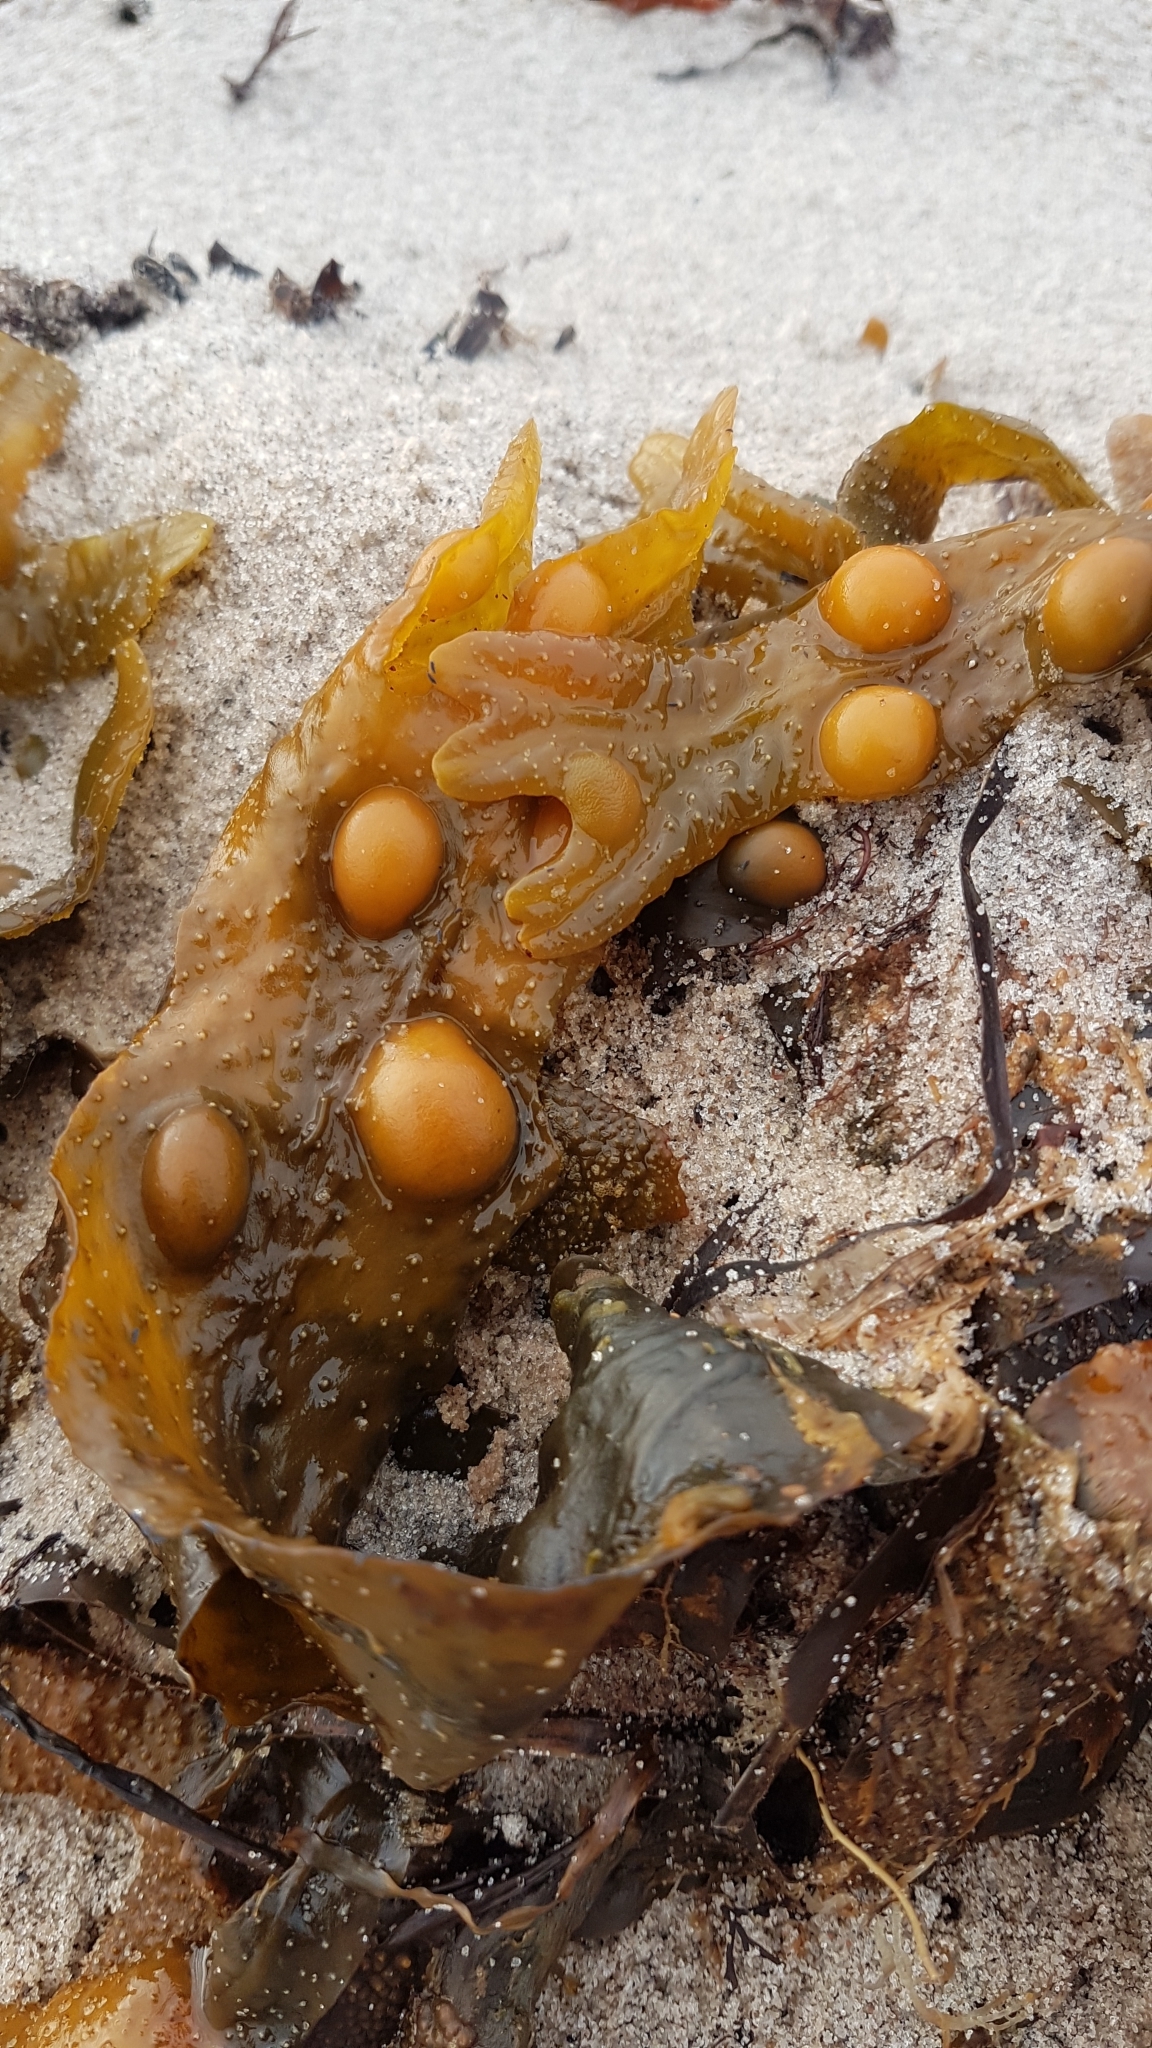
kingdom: Chromista
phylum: Ochrophyta
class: Phaeophyceae
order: Fucales
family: Fucaceae
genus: Fucus
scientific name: Fucus vesiculosus
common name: Bladder wrack
